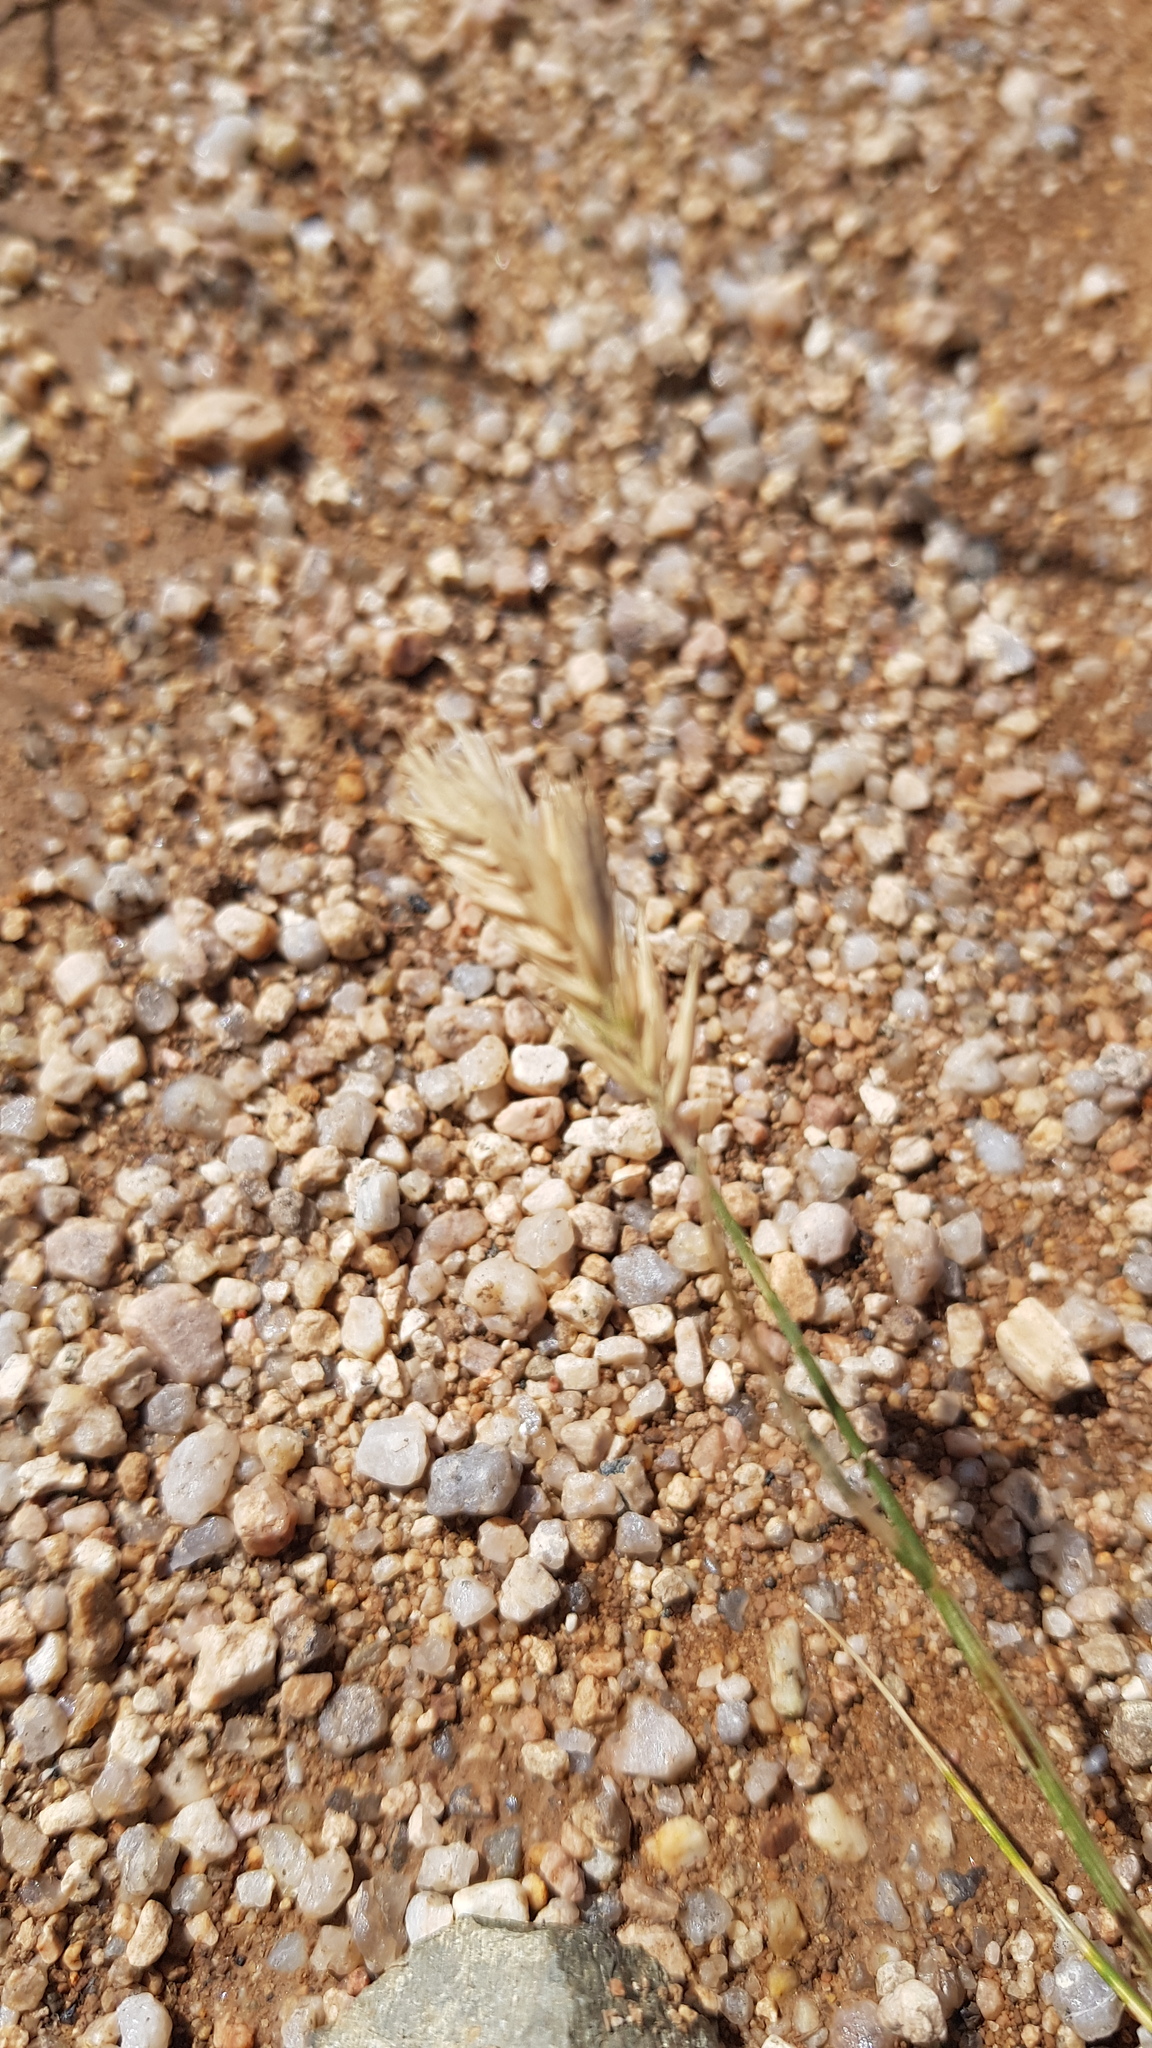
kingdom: Plantae
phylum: Tracheophyta
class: Liliopsida
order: Poales
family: Poaceae
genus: Agropyron
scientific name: Agropyron cristatum
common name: Crested wheatgrass
